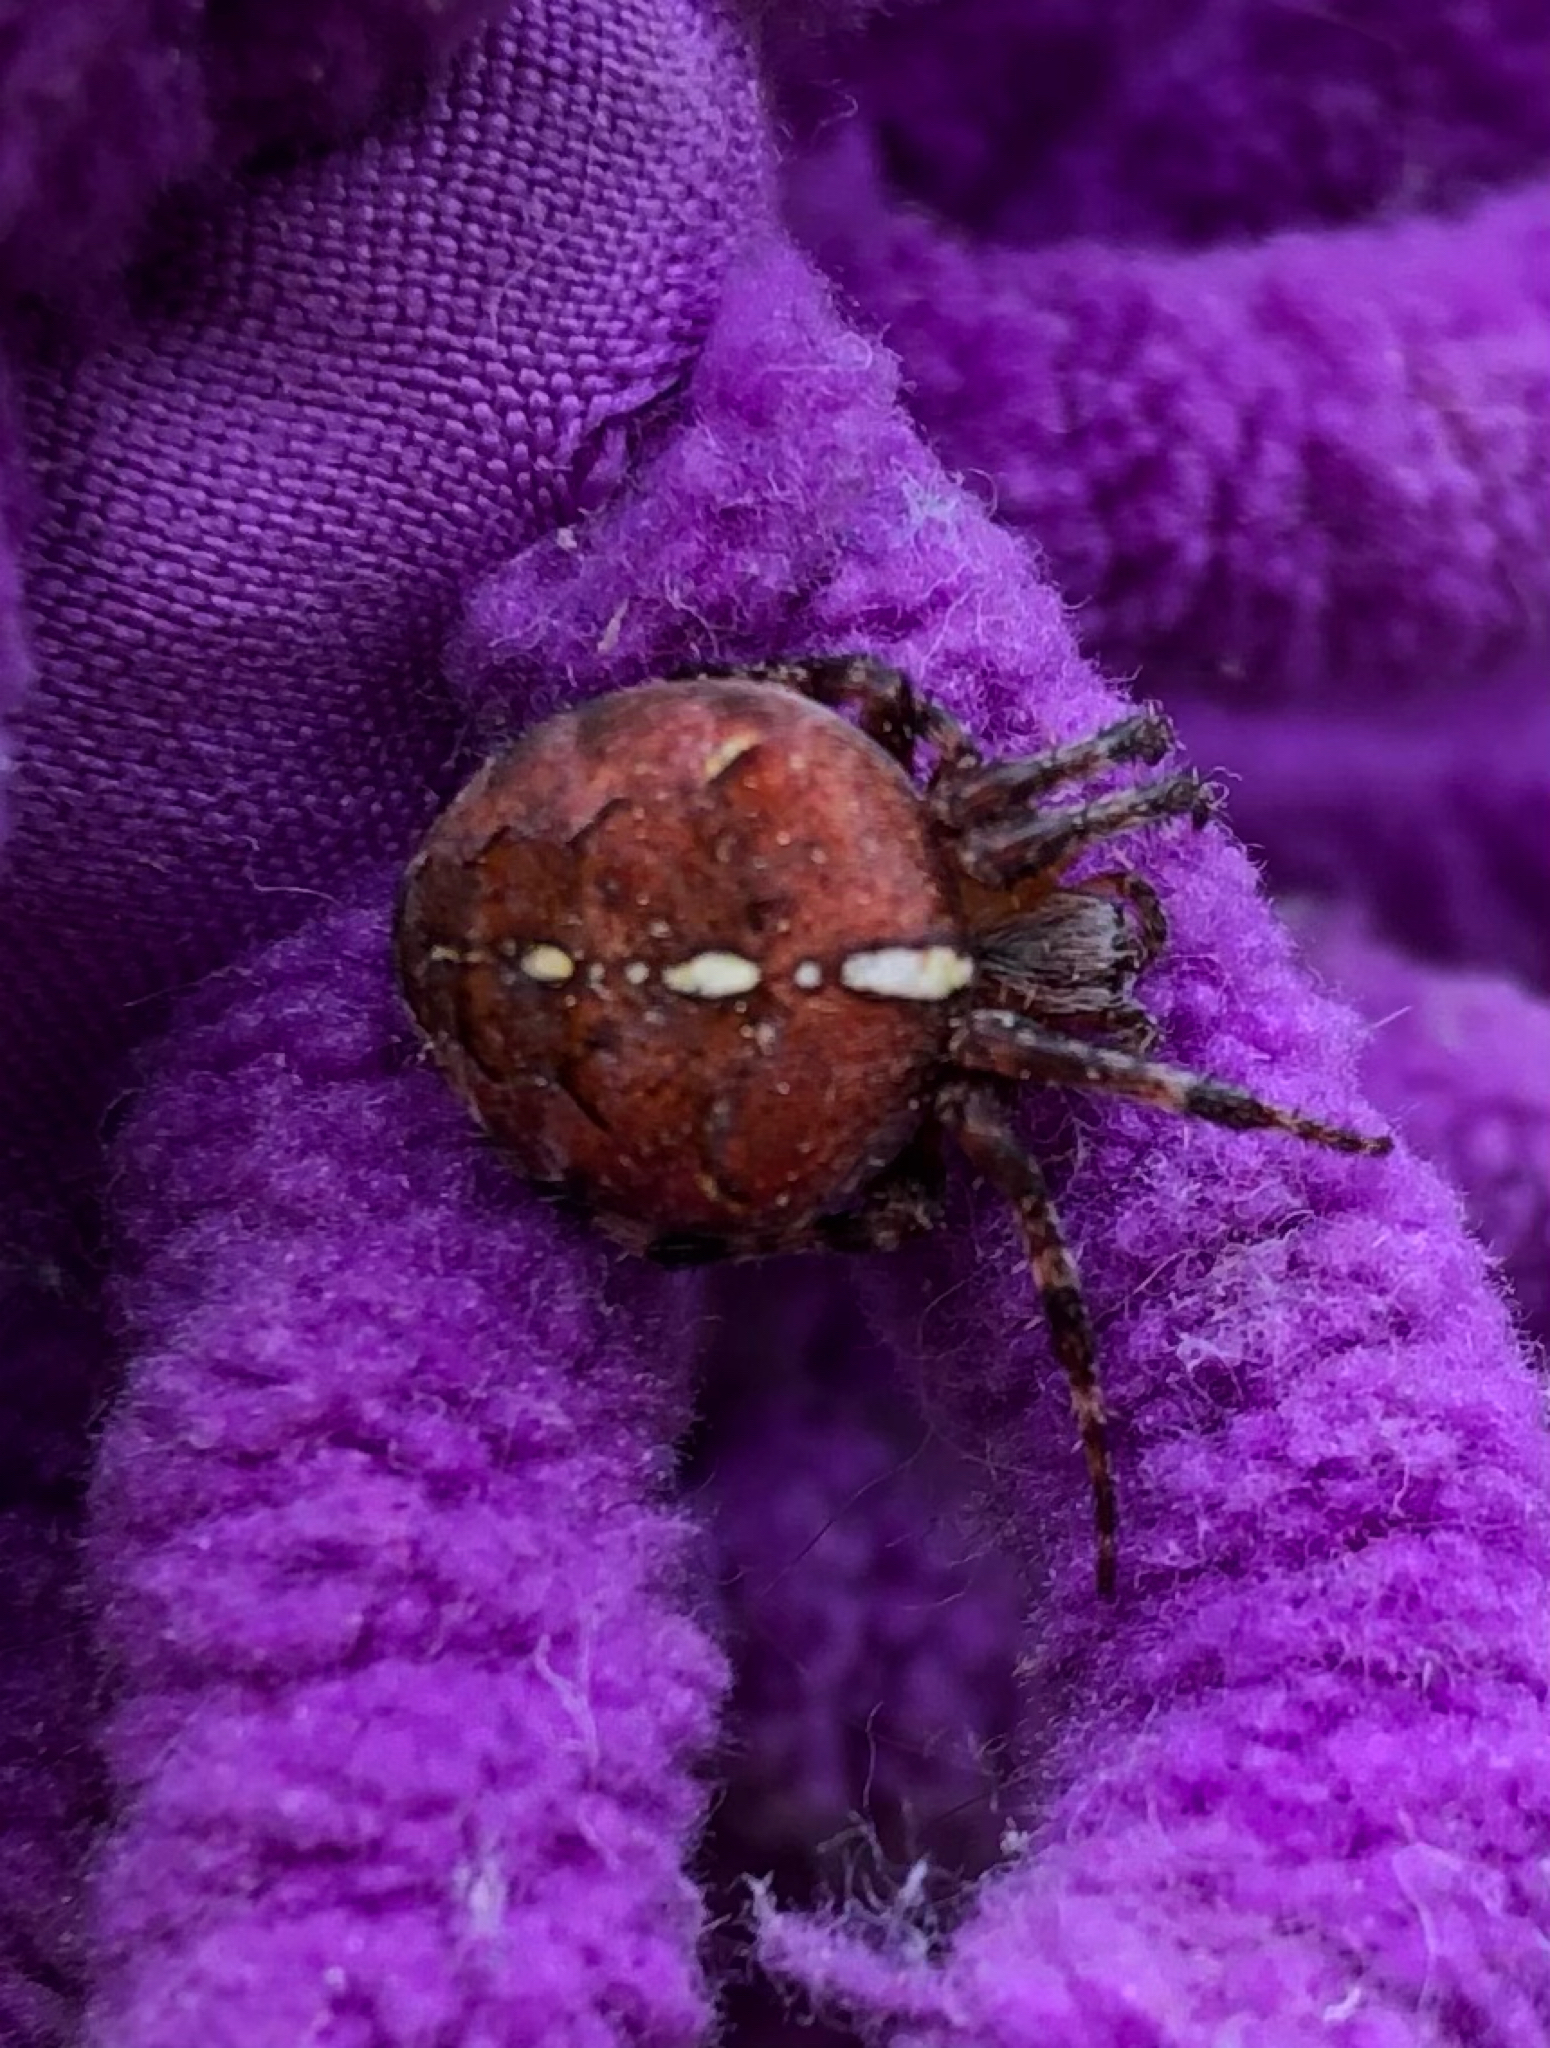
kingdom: Animalia
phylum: Arthropoda
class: Arachnida
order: Araneae
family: Araneidae
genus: Araneus
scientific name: Araneus diadematus
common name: Cross orbweaver
